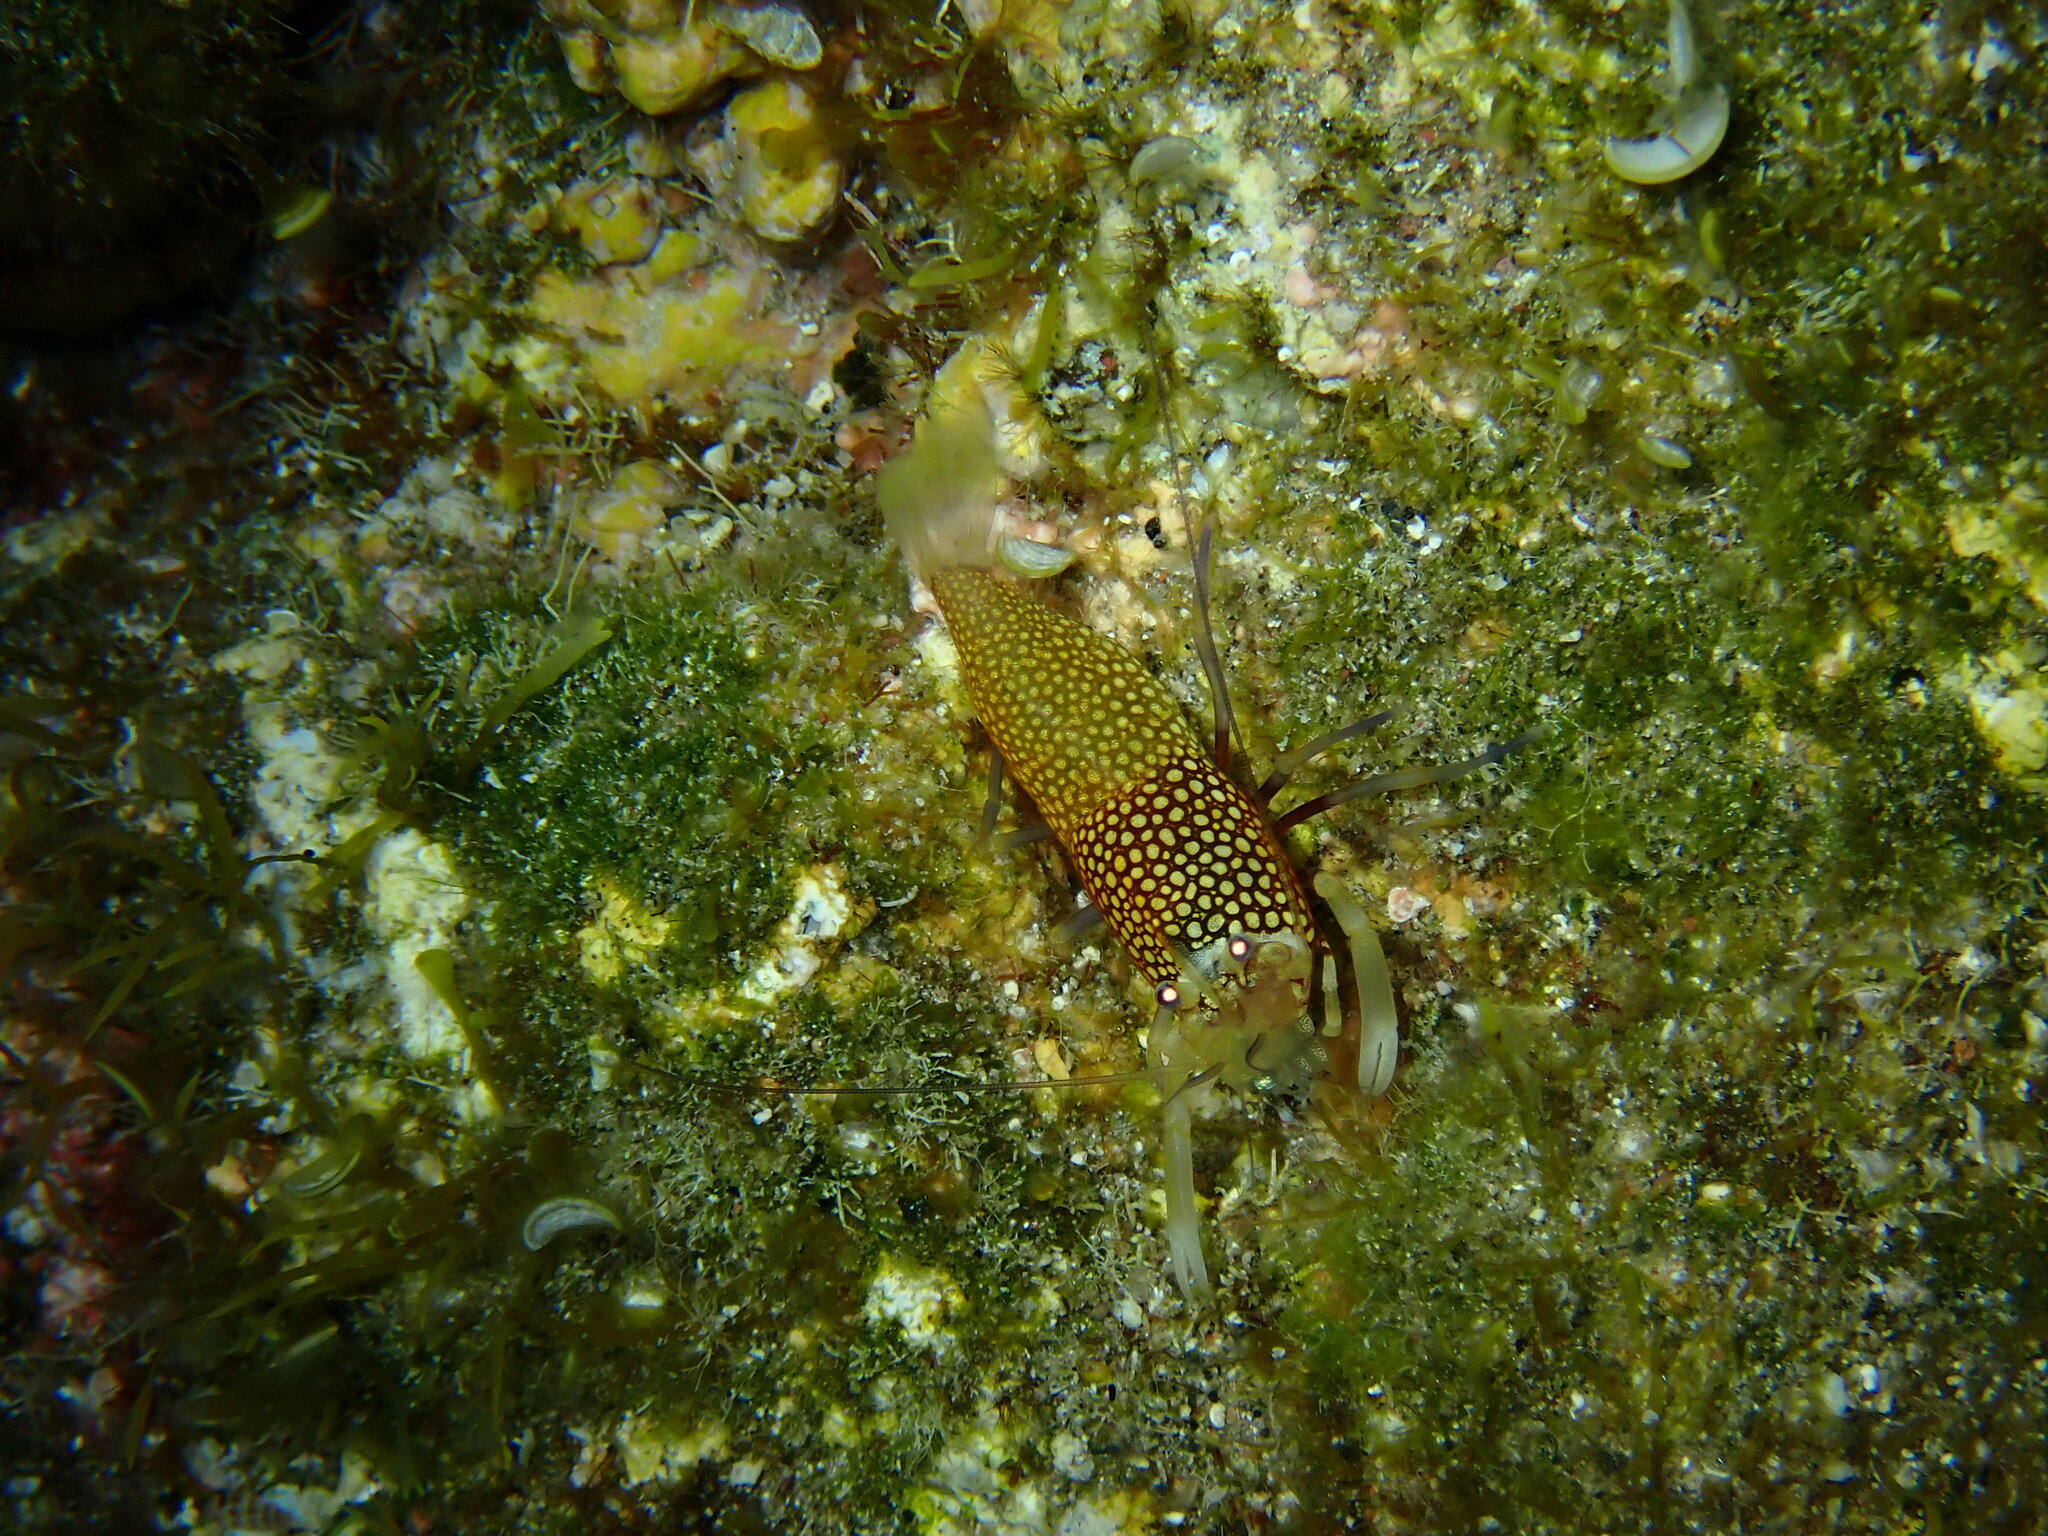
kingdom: Animalia
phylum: Arthropoda
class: Malacostraca
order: Decapoda
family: Palaemonidae
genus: Gnathophyllum
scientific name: Gnathophyllum elegans
